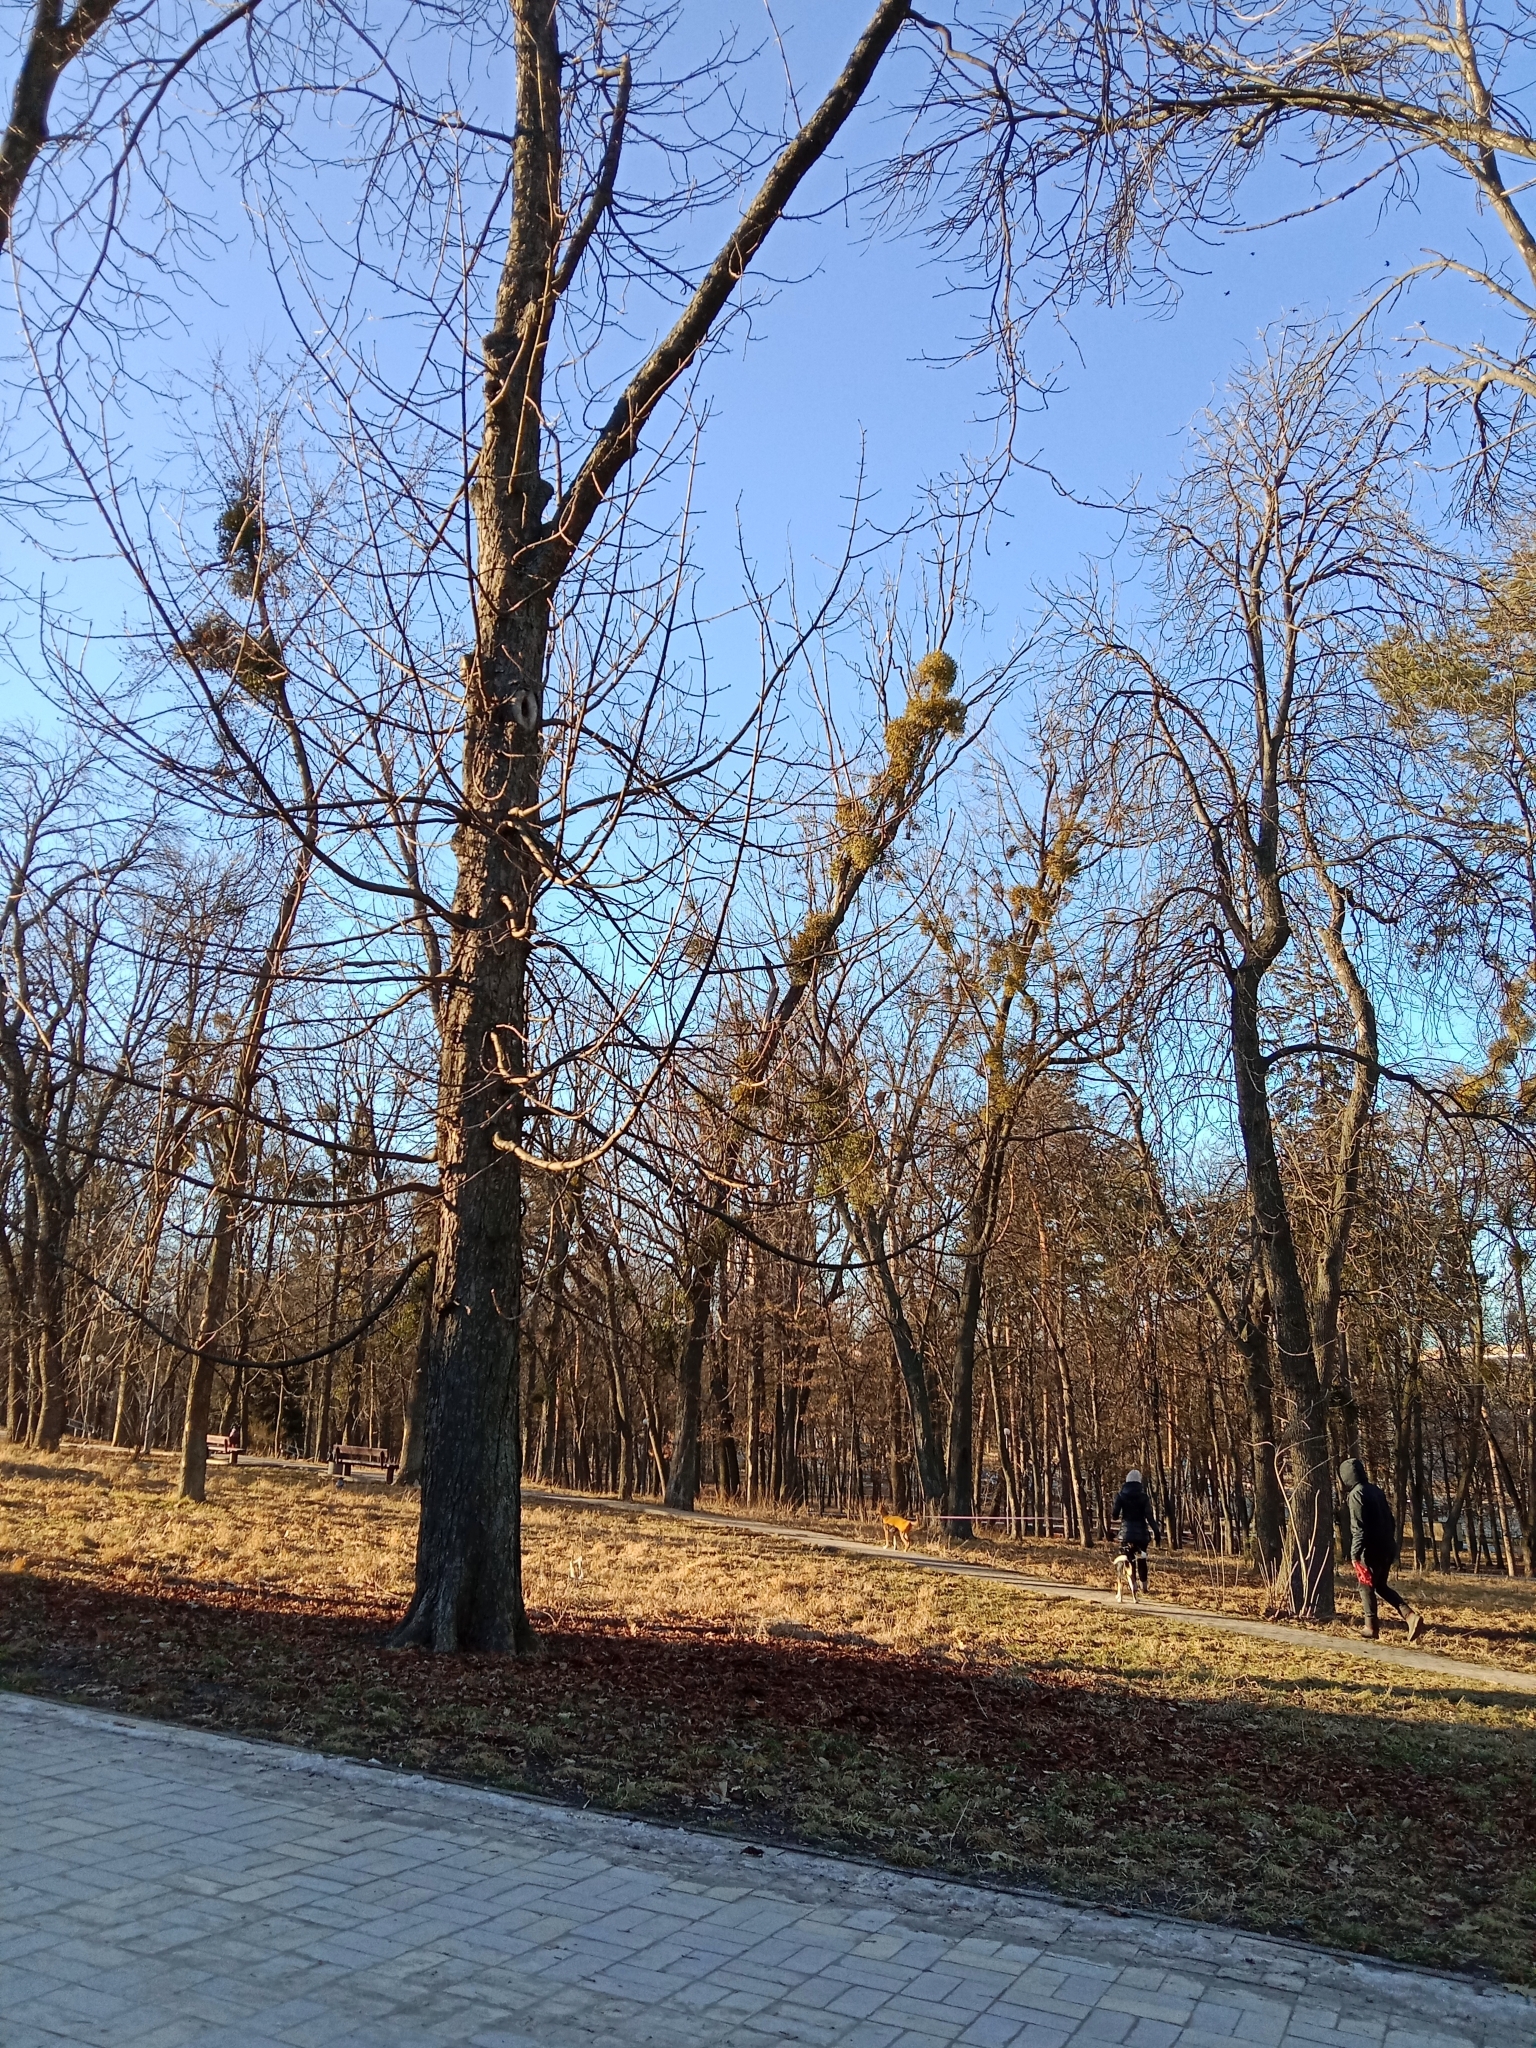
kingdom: Plantae
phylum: Tracheophyta
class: Magnoliopsida
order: Santalales
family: Viscaceae
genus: Viscum
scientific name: Viscum album
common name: Mistletoe
